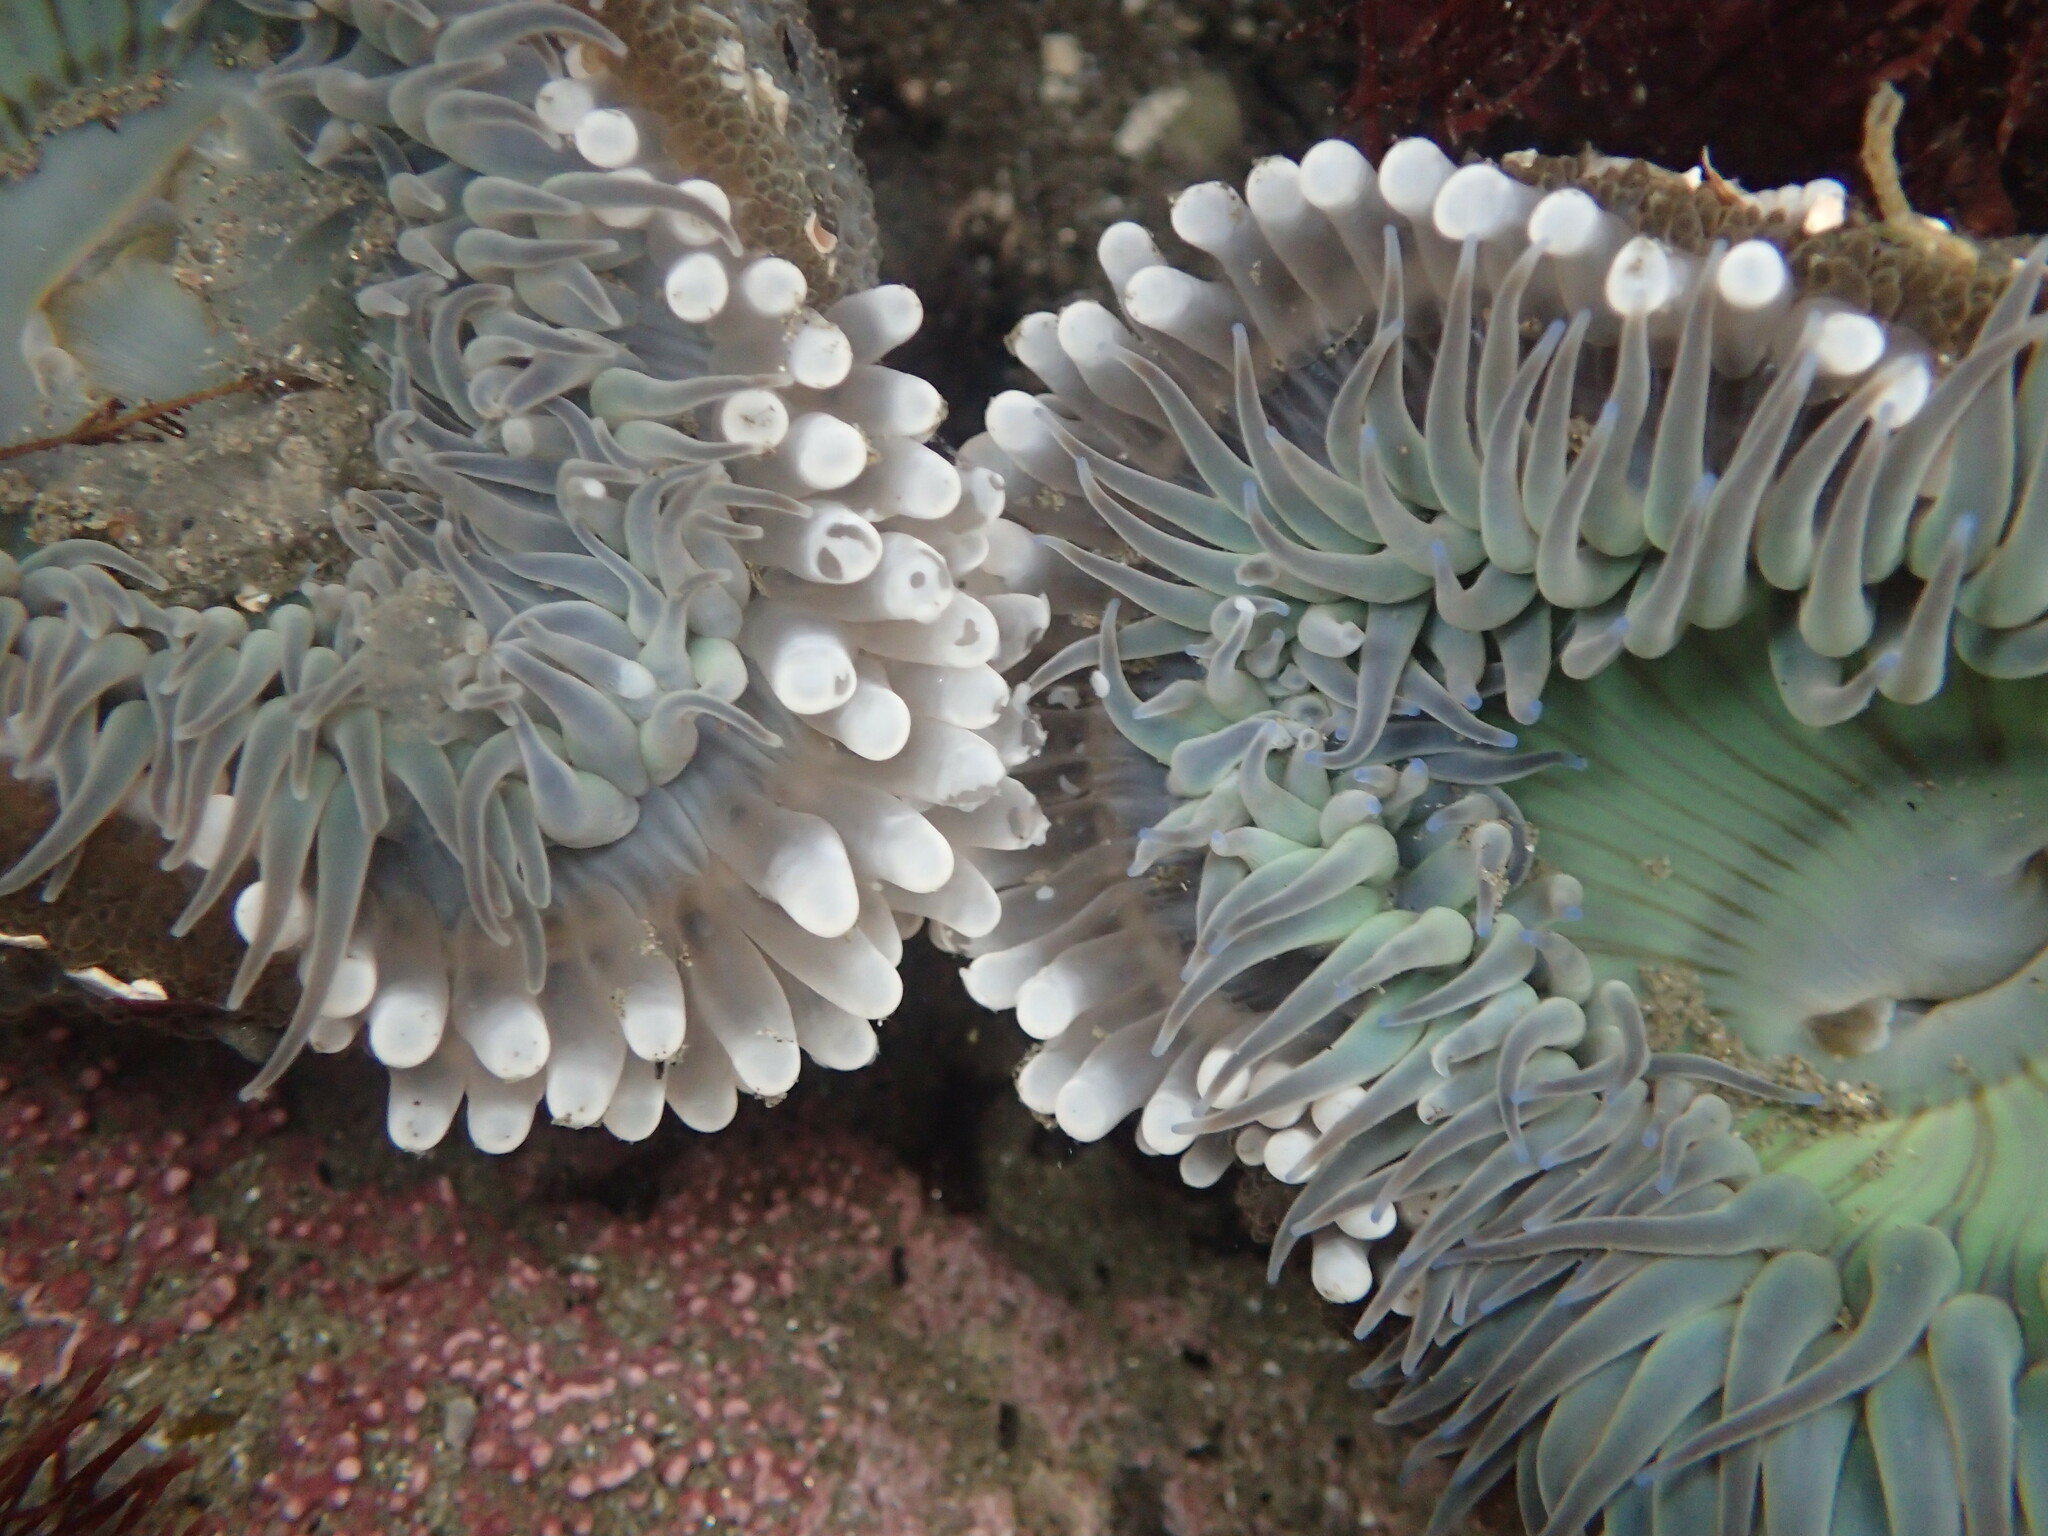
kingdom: Animalia
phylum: Cnidaria
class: Anthozoa
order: Actiniaria
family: Actiniidae
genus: Anthopleura
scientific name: Anthopleura sola
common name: Sun anemone
